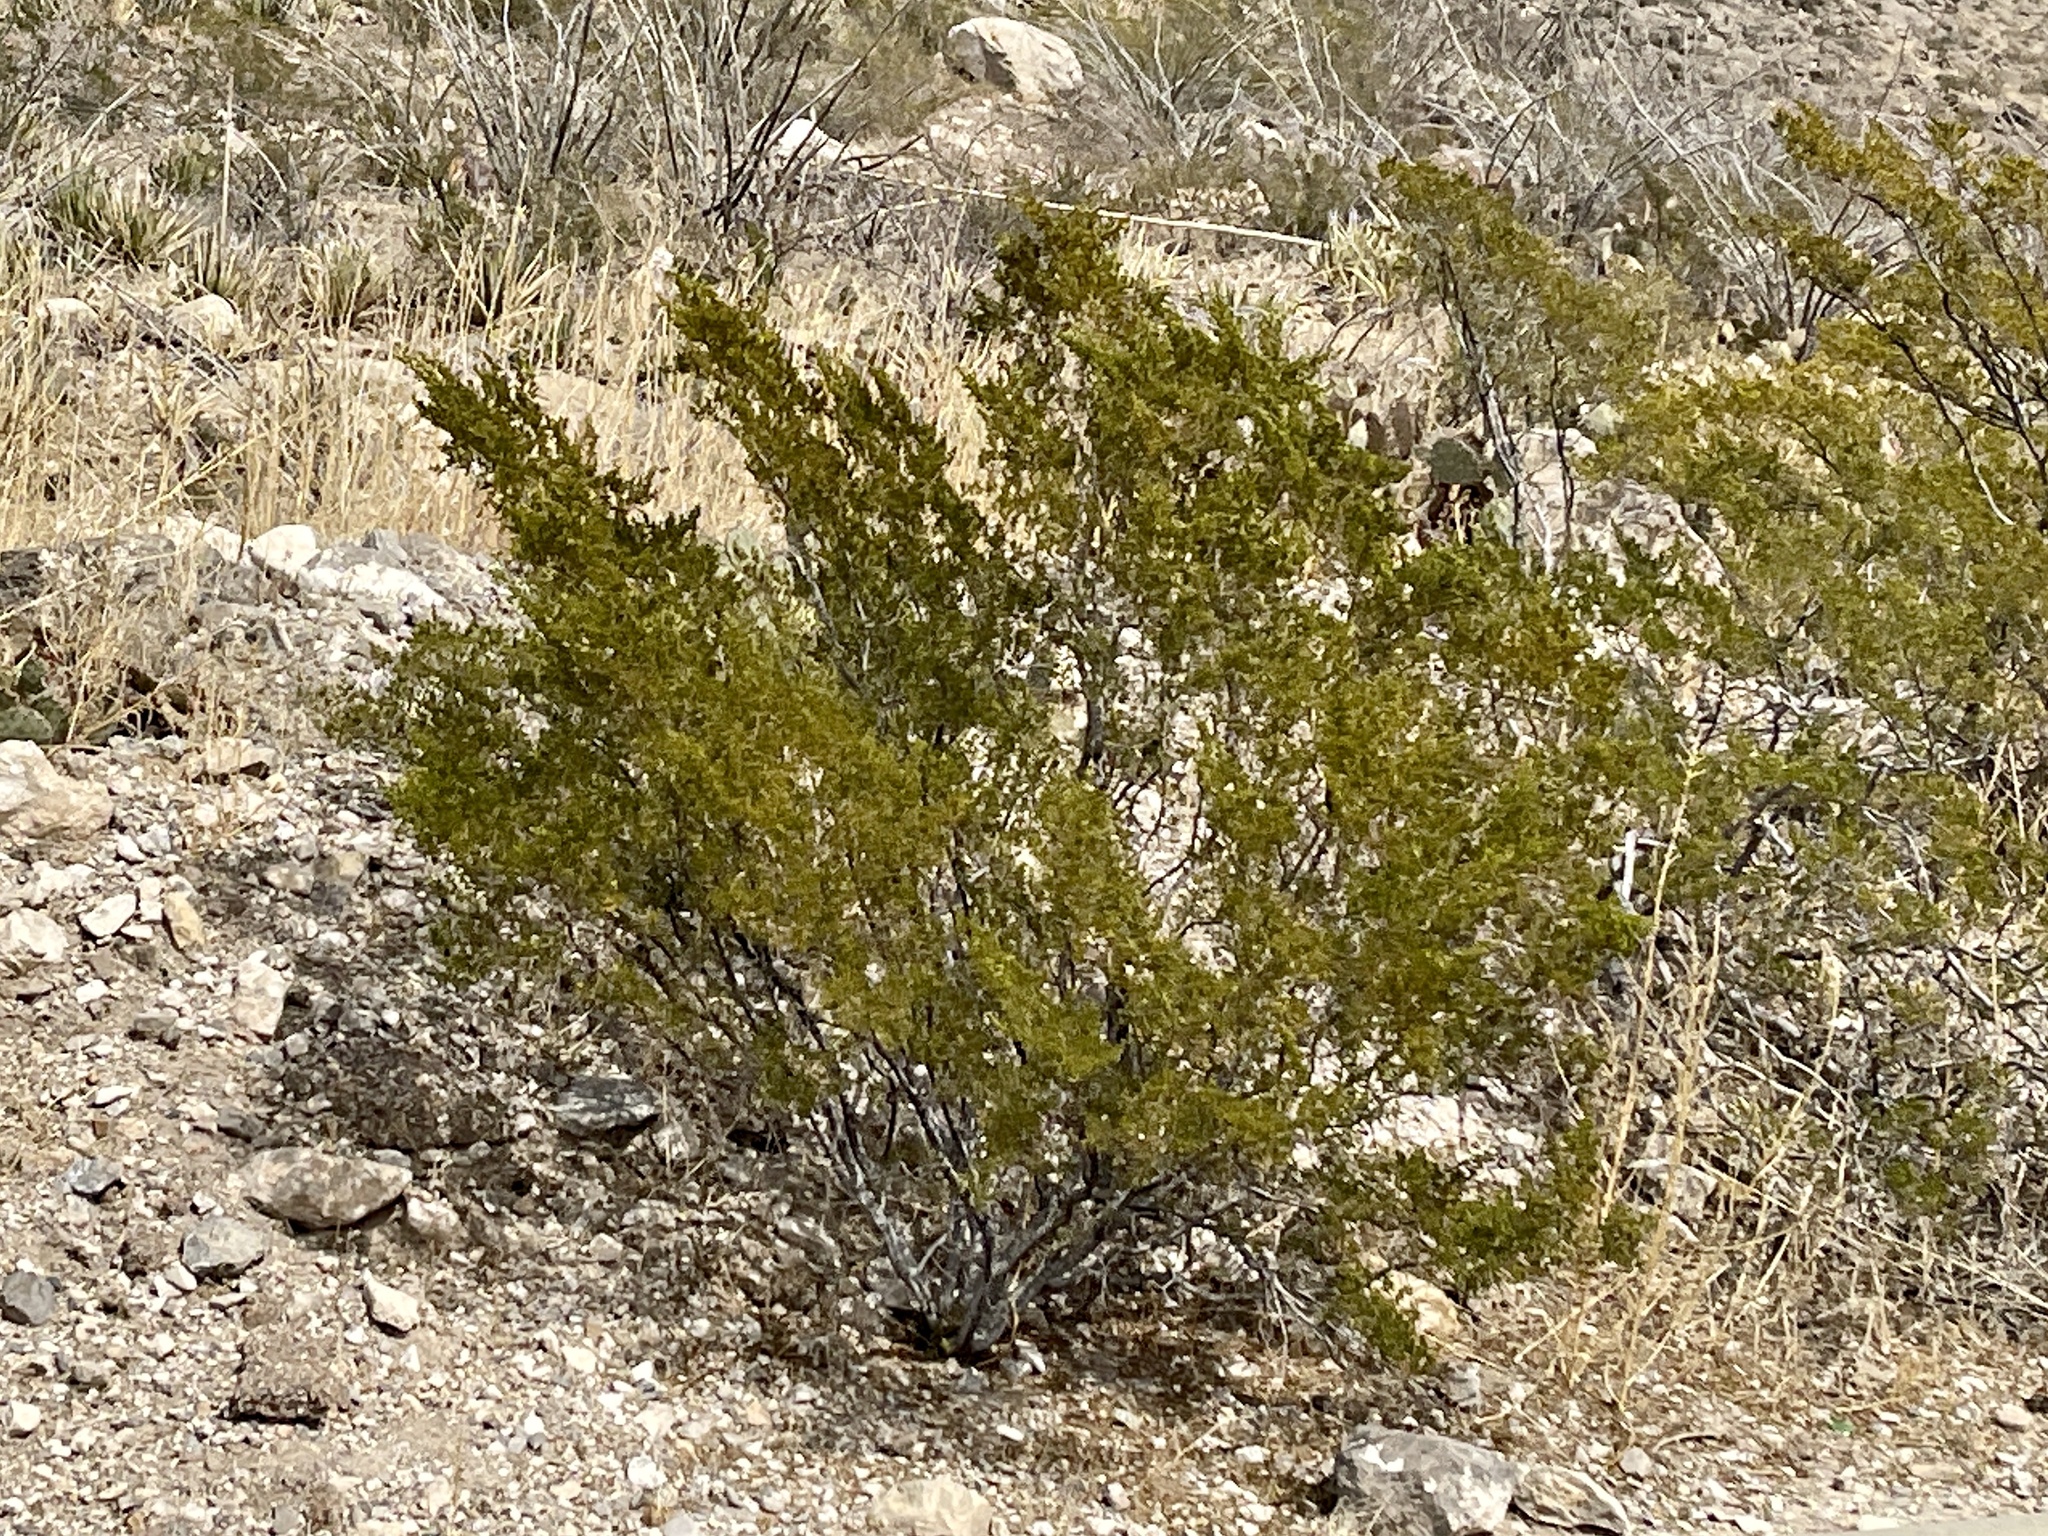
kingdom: Plantae
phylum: Tracheophyta
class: Magnoliopsida
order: Zygophyllales
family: Zygophyllaceae
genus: Larrea
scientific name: Larrea tridentata
